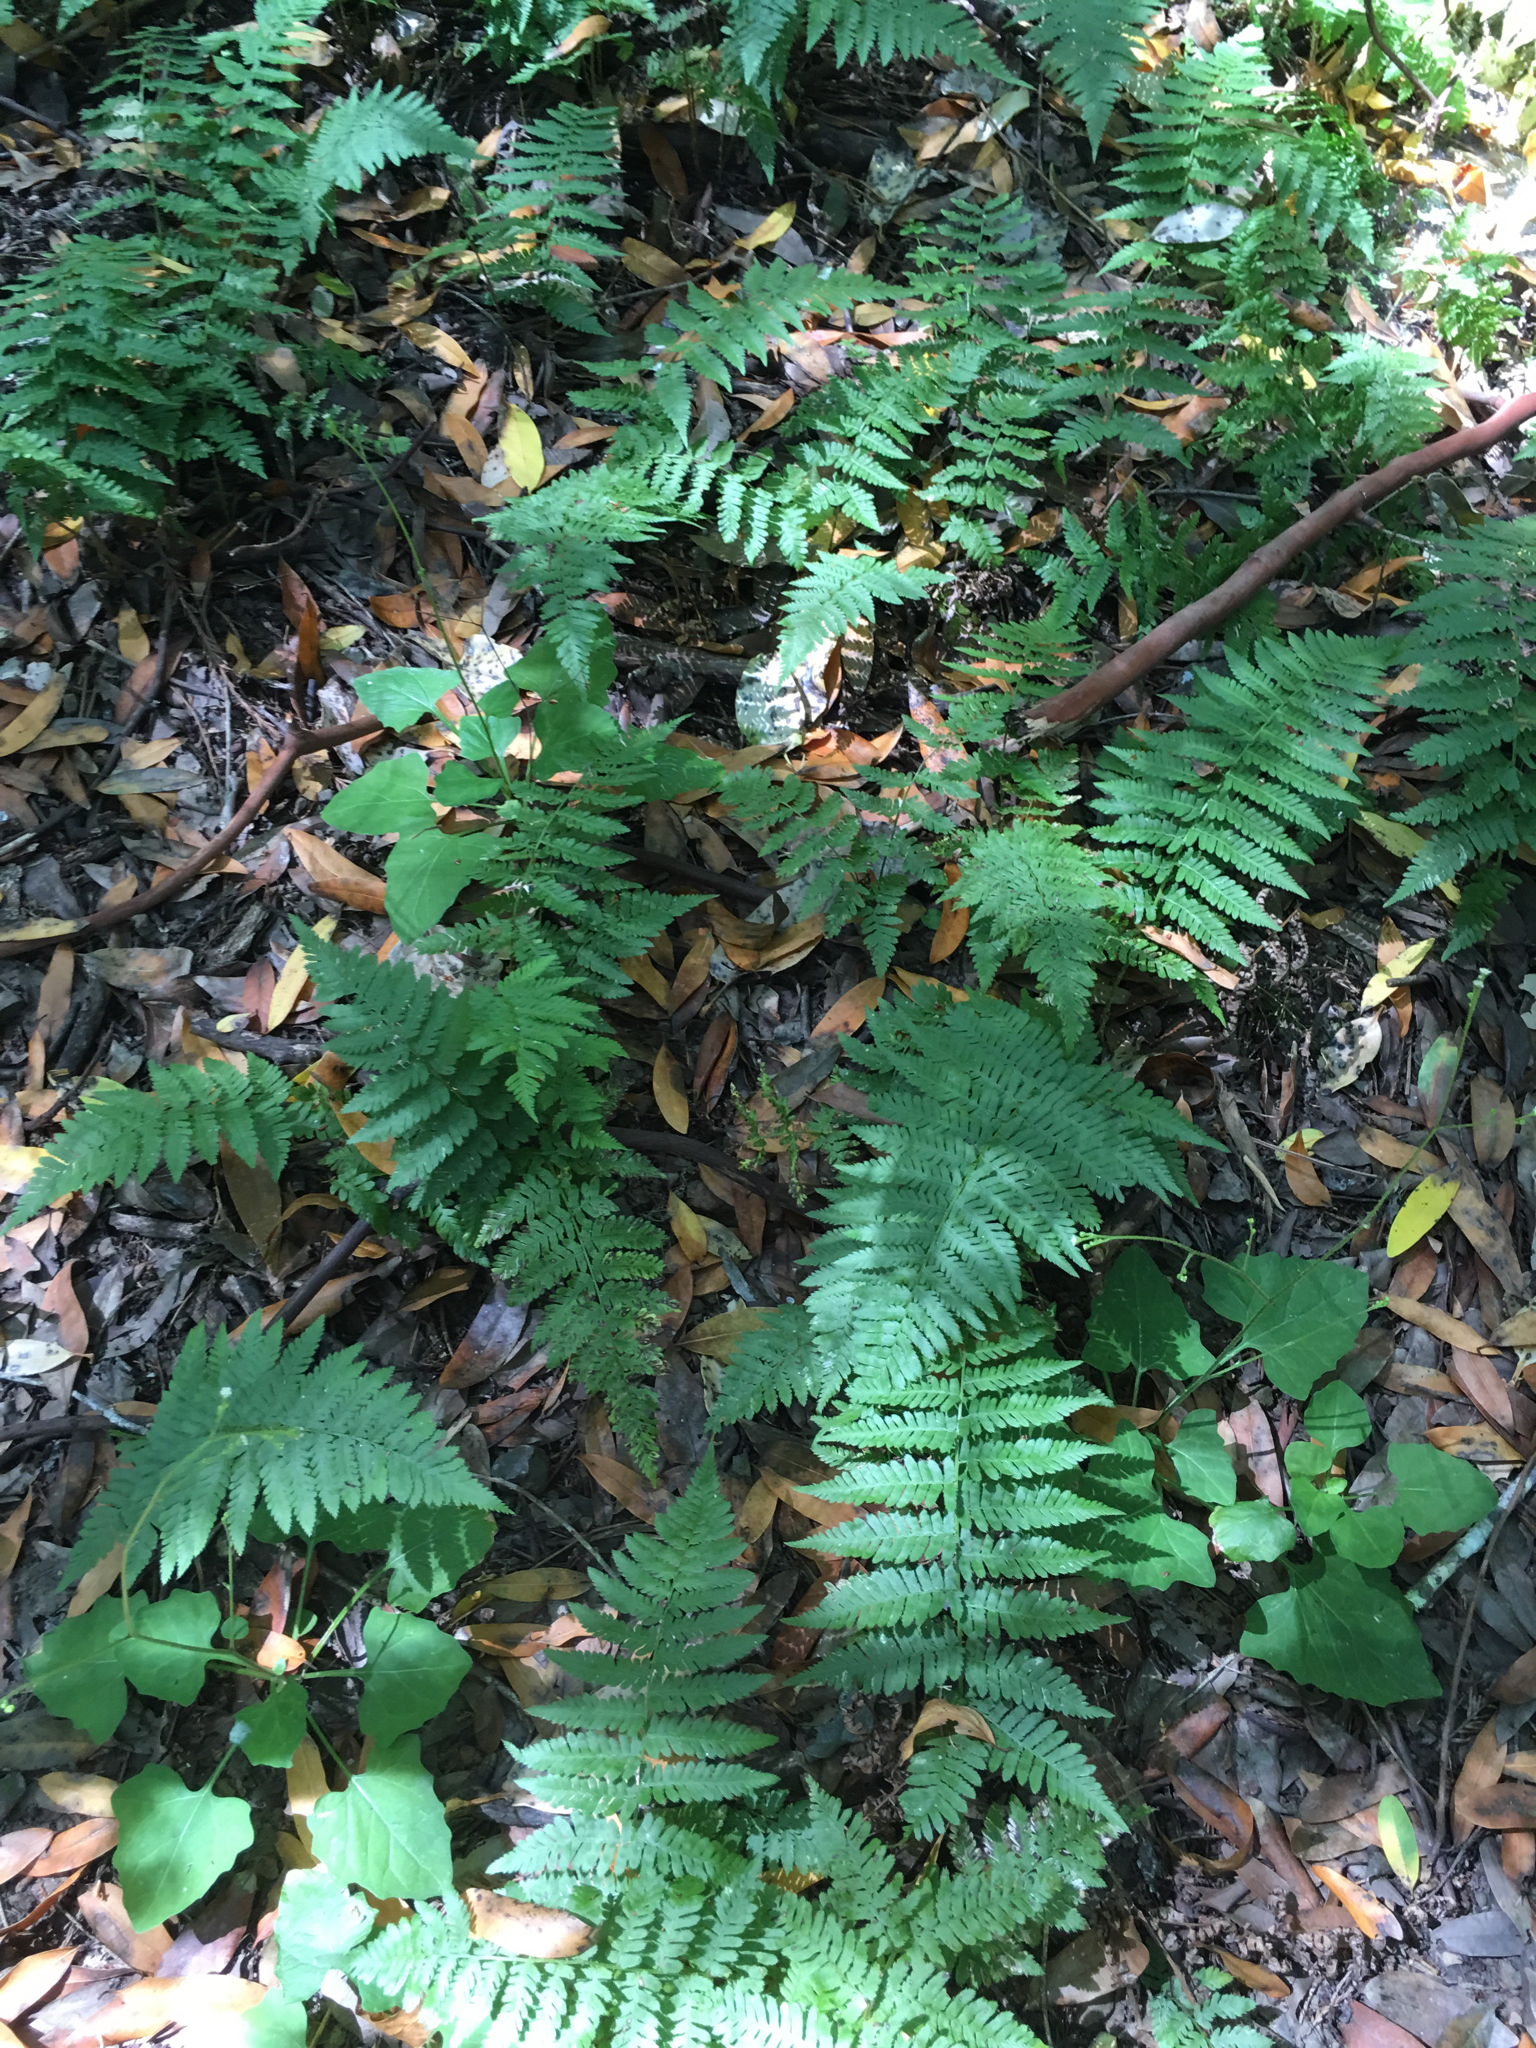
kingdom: Plantae
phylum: Tracheophyta
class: Polypodiopsida
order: Polypodiales
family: Dryopteridaceae
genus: Dryopteris
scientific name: Dryopteris arguta
